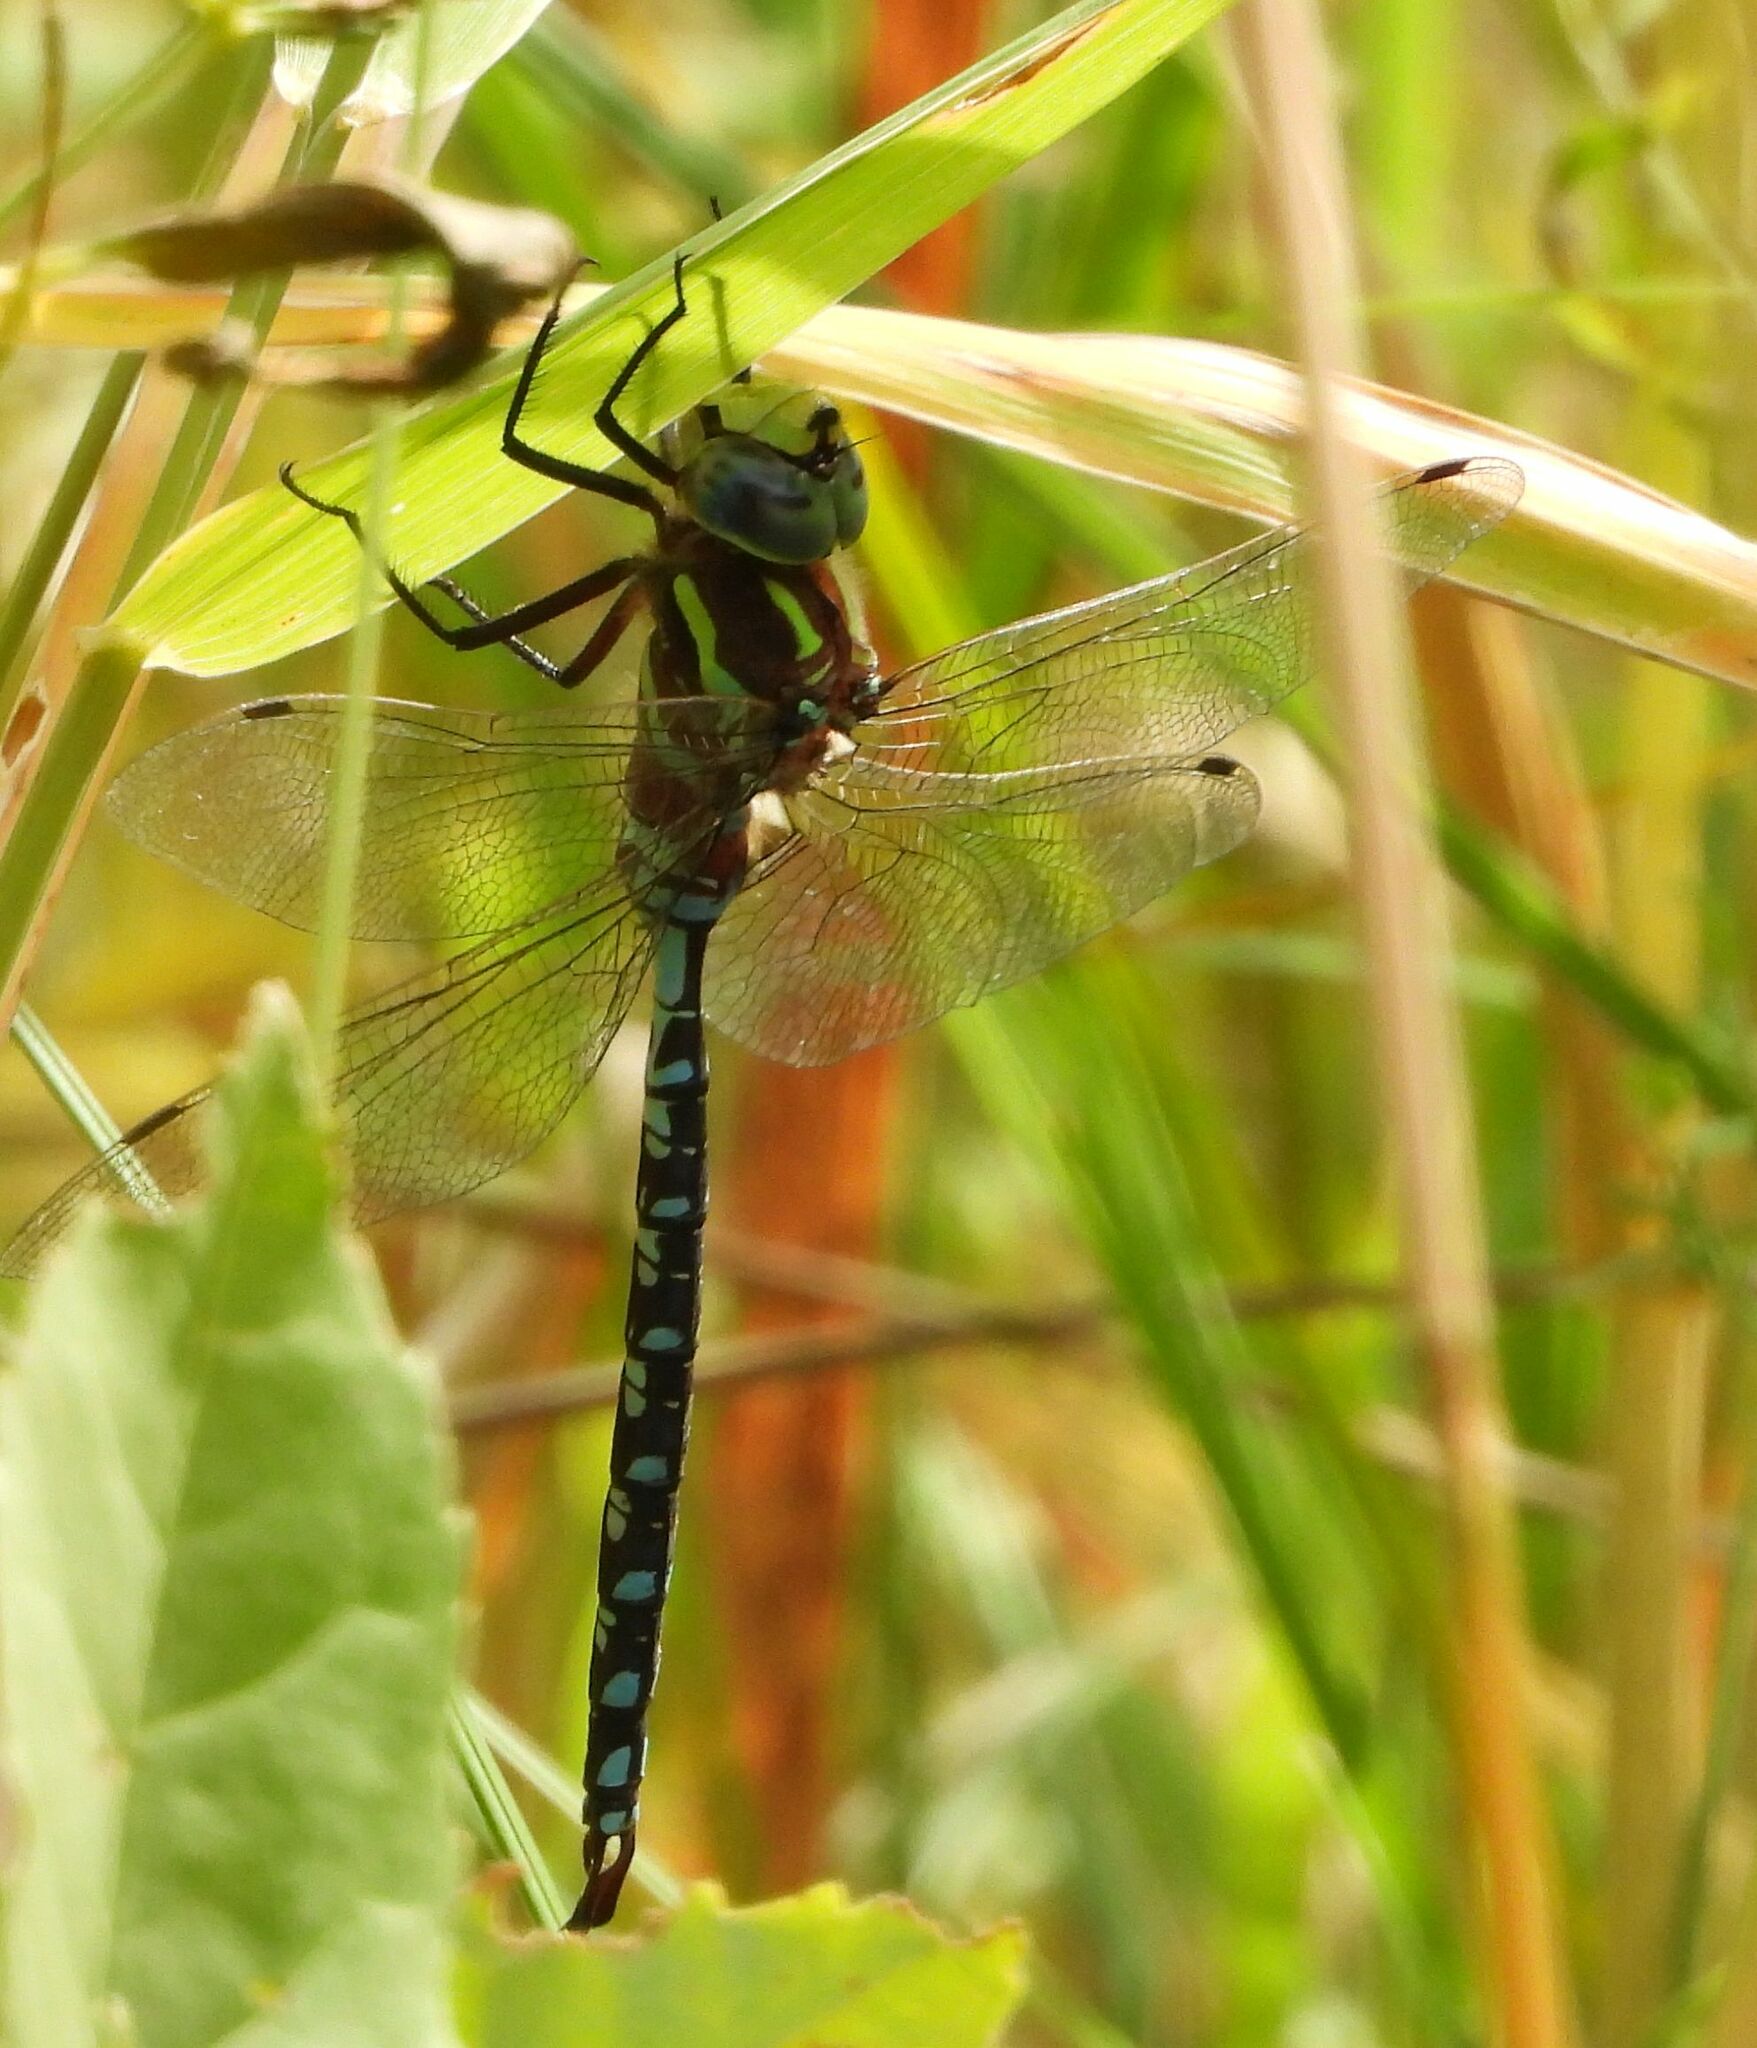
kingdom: Animalia
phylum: Arthropoda
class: Insecta
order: Odonata
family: Aeshnidae
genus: Aeshna
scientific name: Aeshna constricta
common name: Lance-tipped darner
